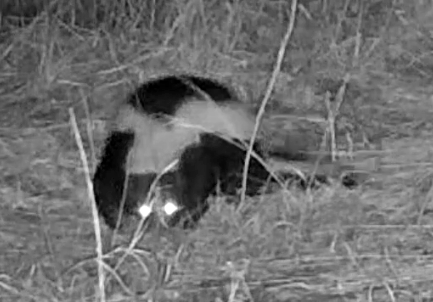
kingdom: Animalia
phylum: Chordata
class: Mammalia
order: Carnivora
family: Mephitidae
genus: Mephitis
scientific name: Mephitis mephitis
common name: Striped skunk
